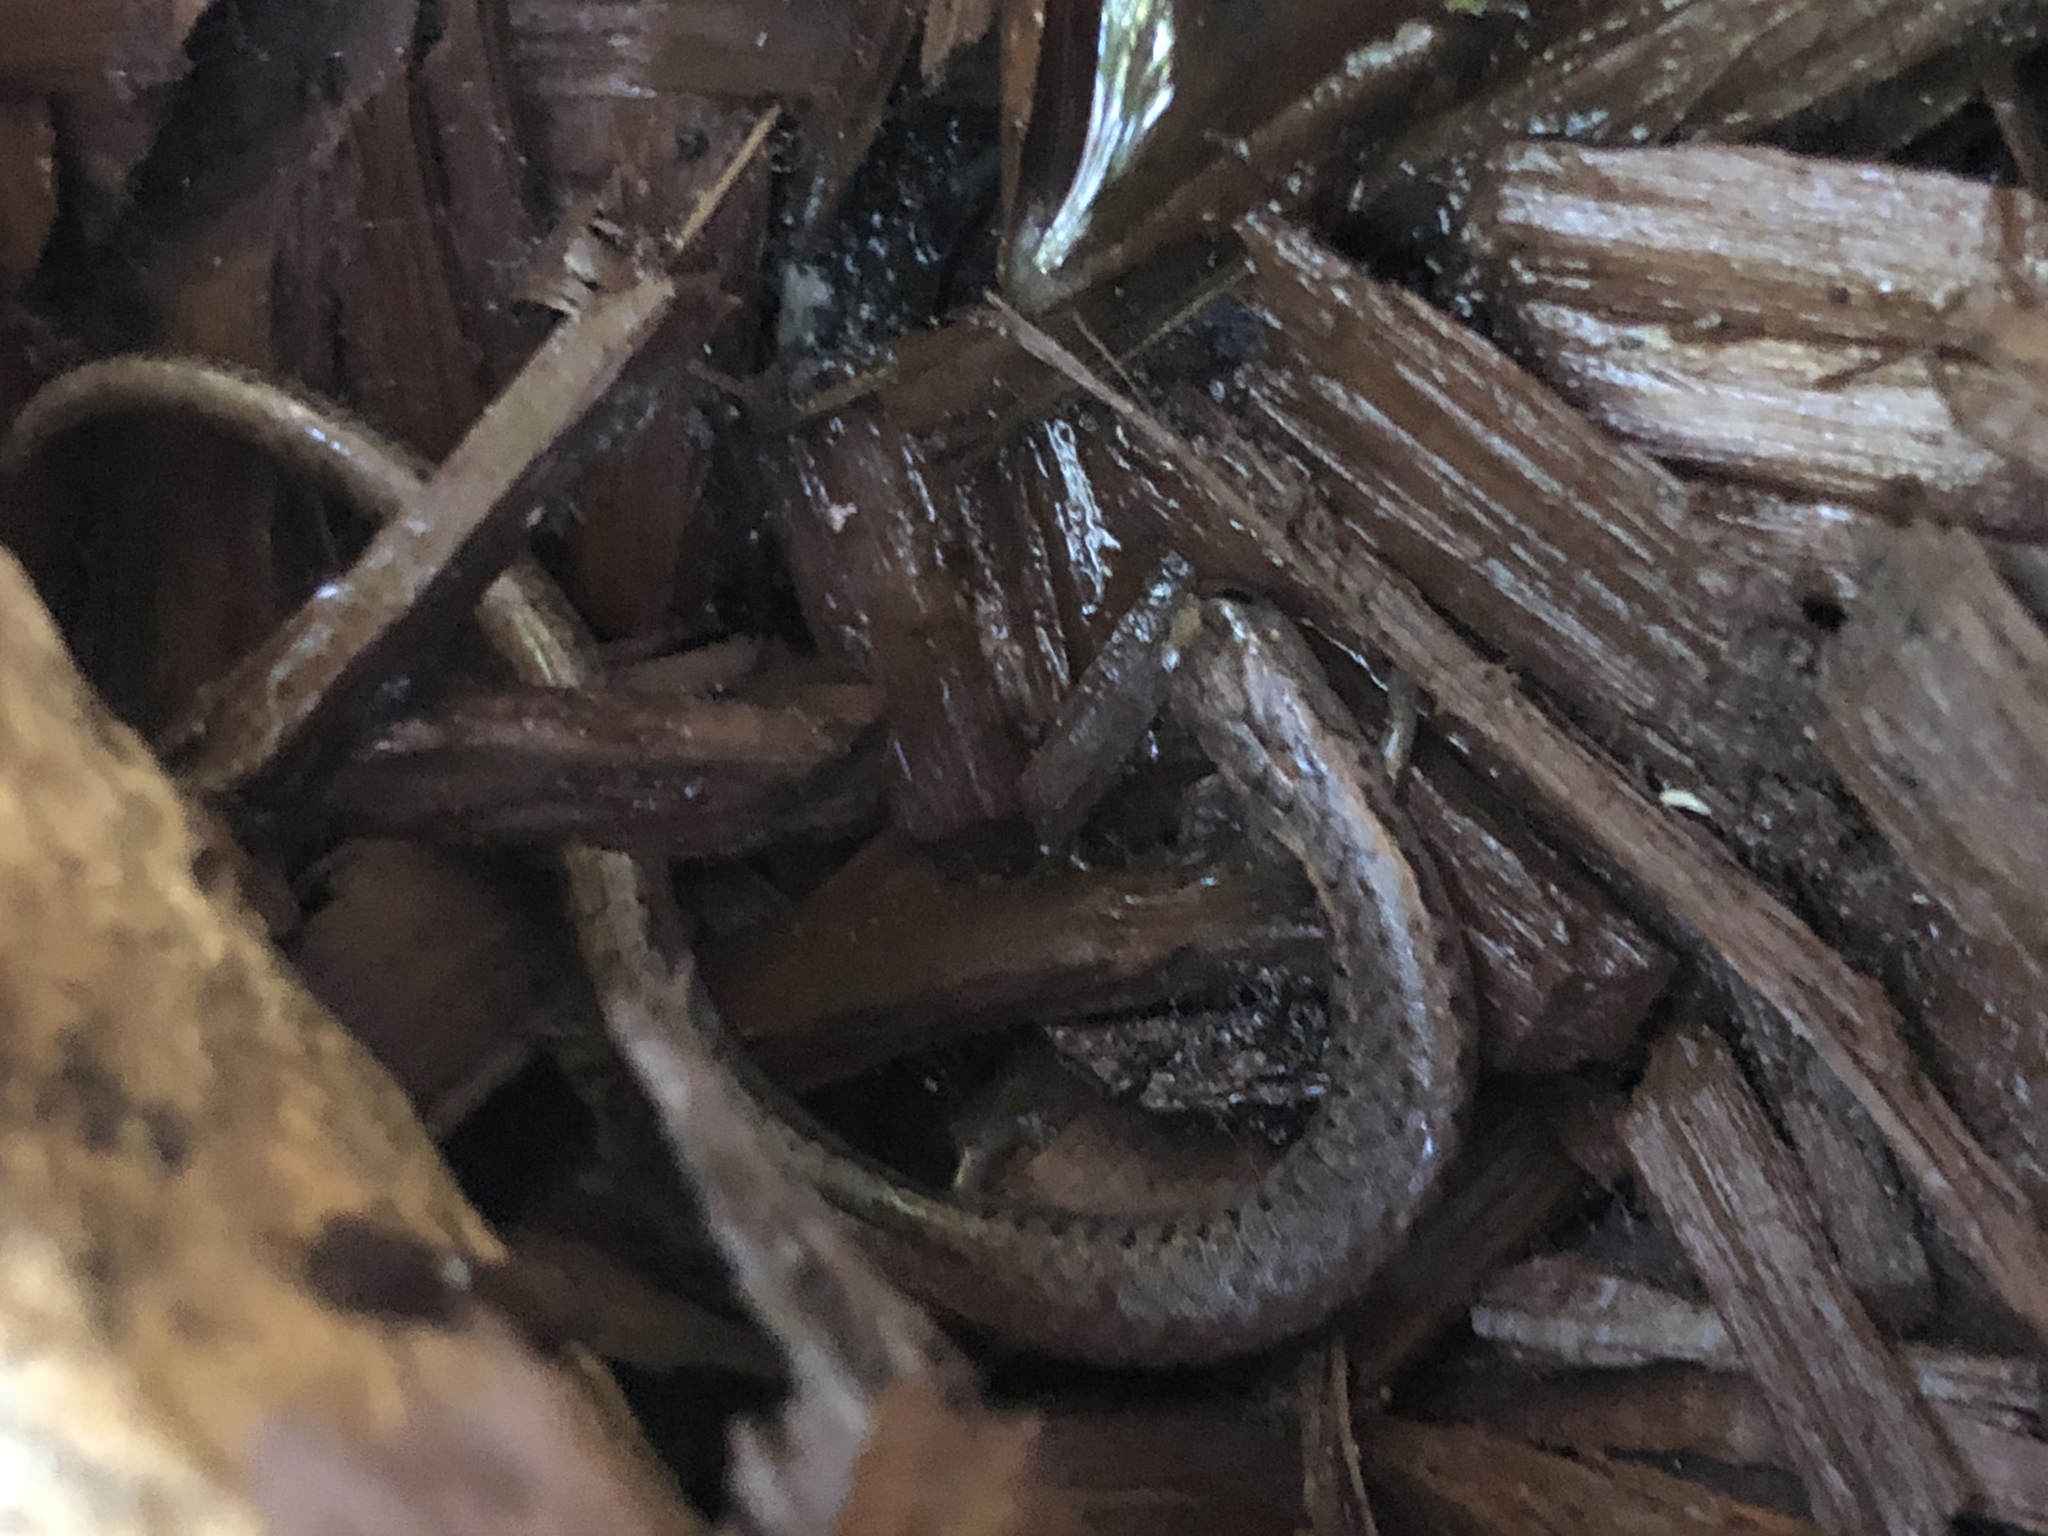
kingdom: Animalia
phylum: Chordata
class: Amphibia
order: Caudata
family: Plethodontidae
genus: Batrachoseps
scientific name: Batrachoseps attenuatus
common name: California slender salamander
